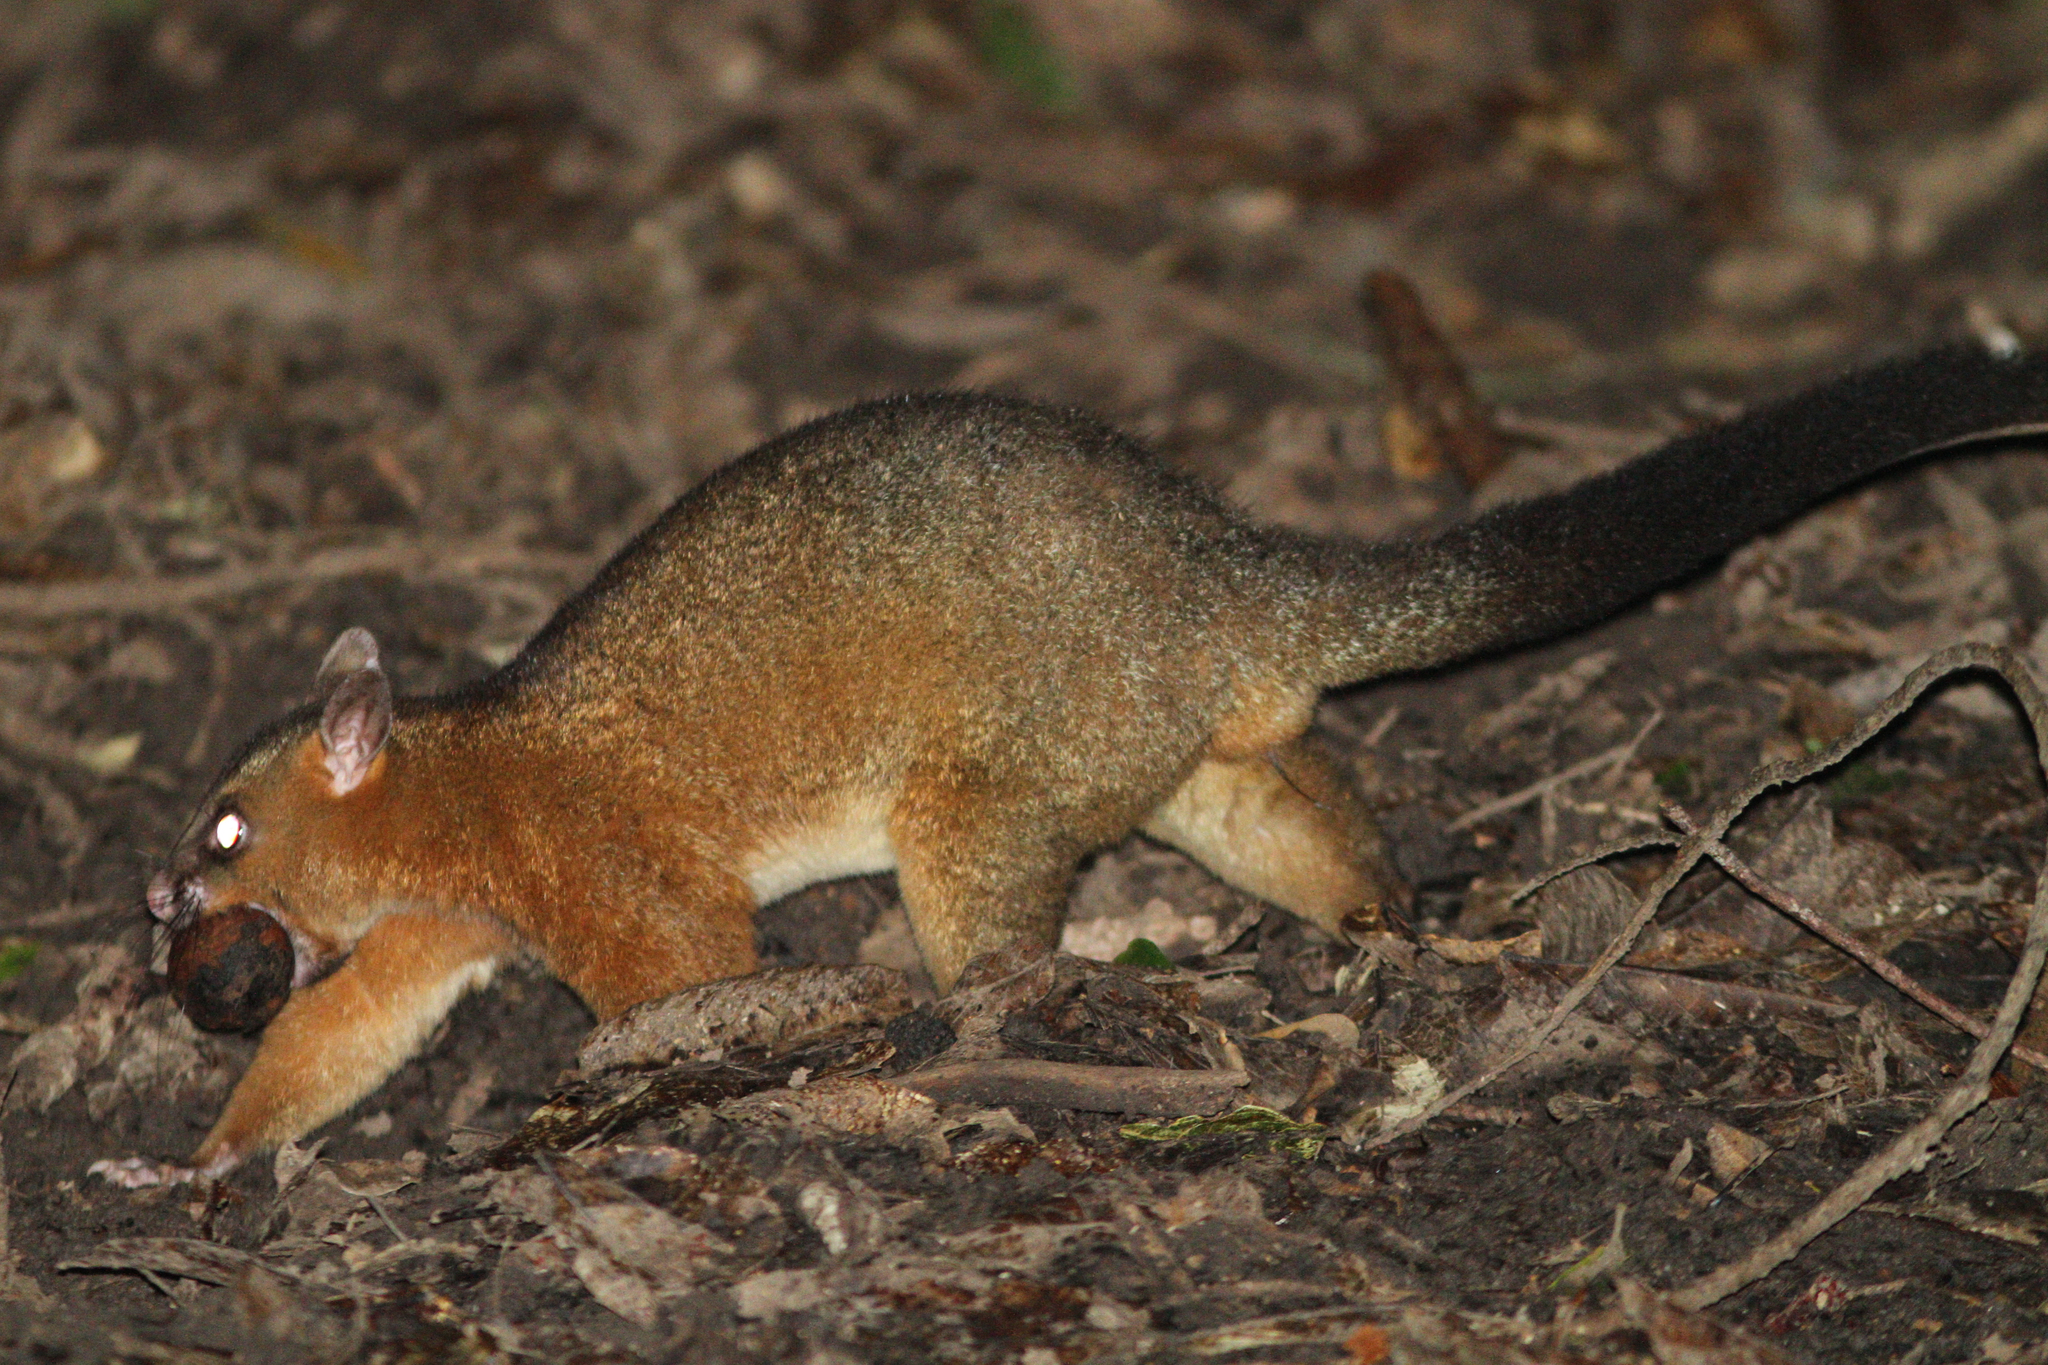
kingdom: Animalia
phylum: Chordata
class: Mammalia
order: Diprotodontia
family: Phalangeridae
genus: Trichosurus
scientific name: Trichosurus vulpecula
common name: Common brushtail
